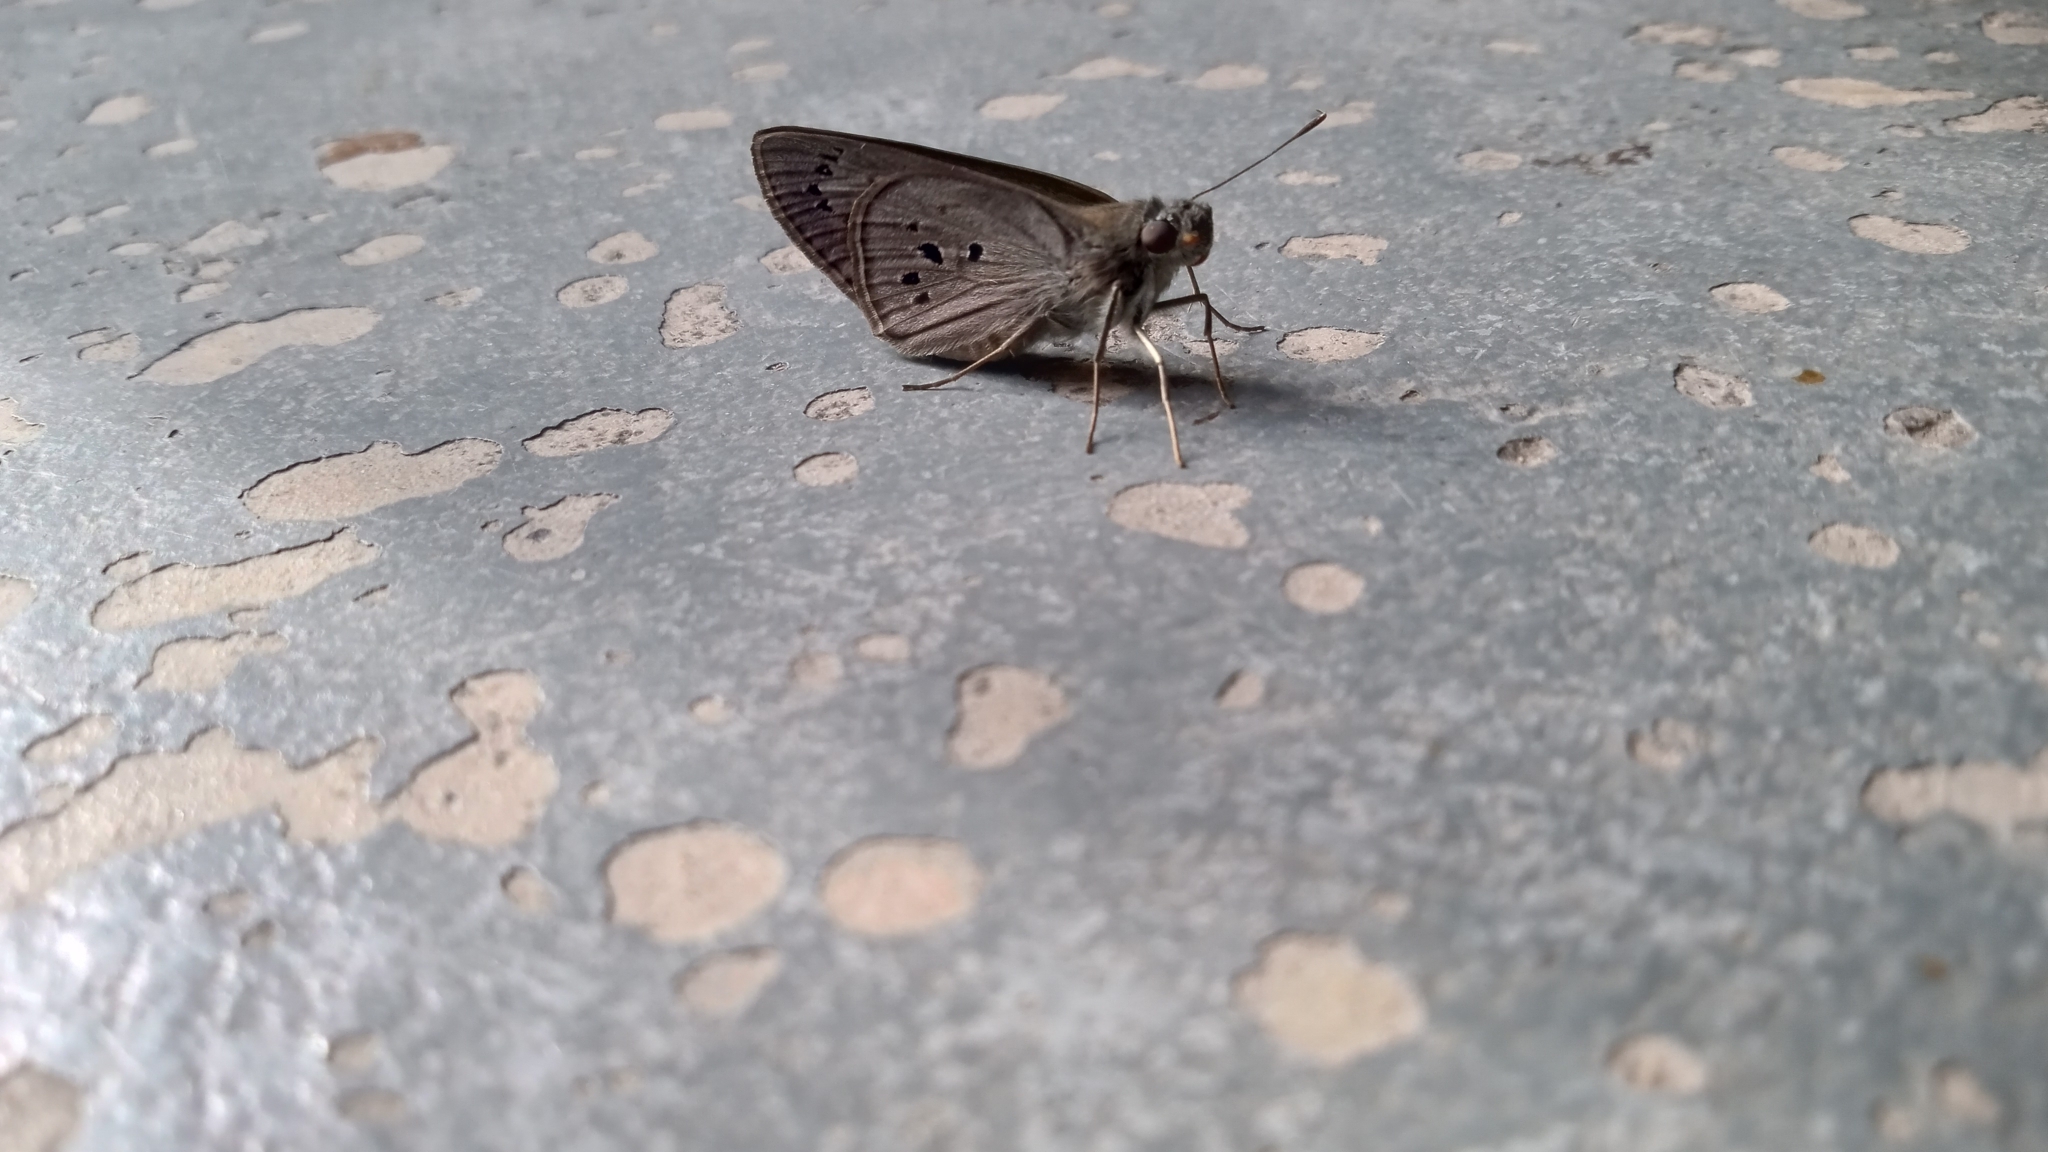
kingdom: Animalia
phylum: Arthropoda
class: Insecta
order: Lepidoptera
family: Hesperiidae
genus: Carystus
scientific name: Carystus
